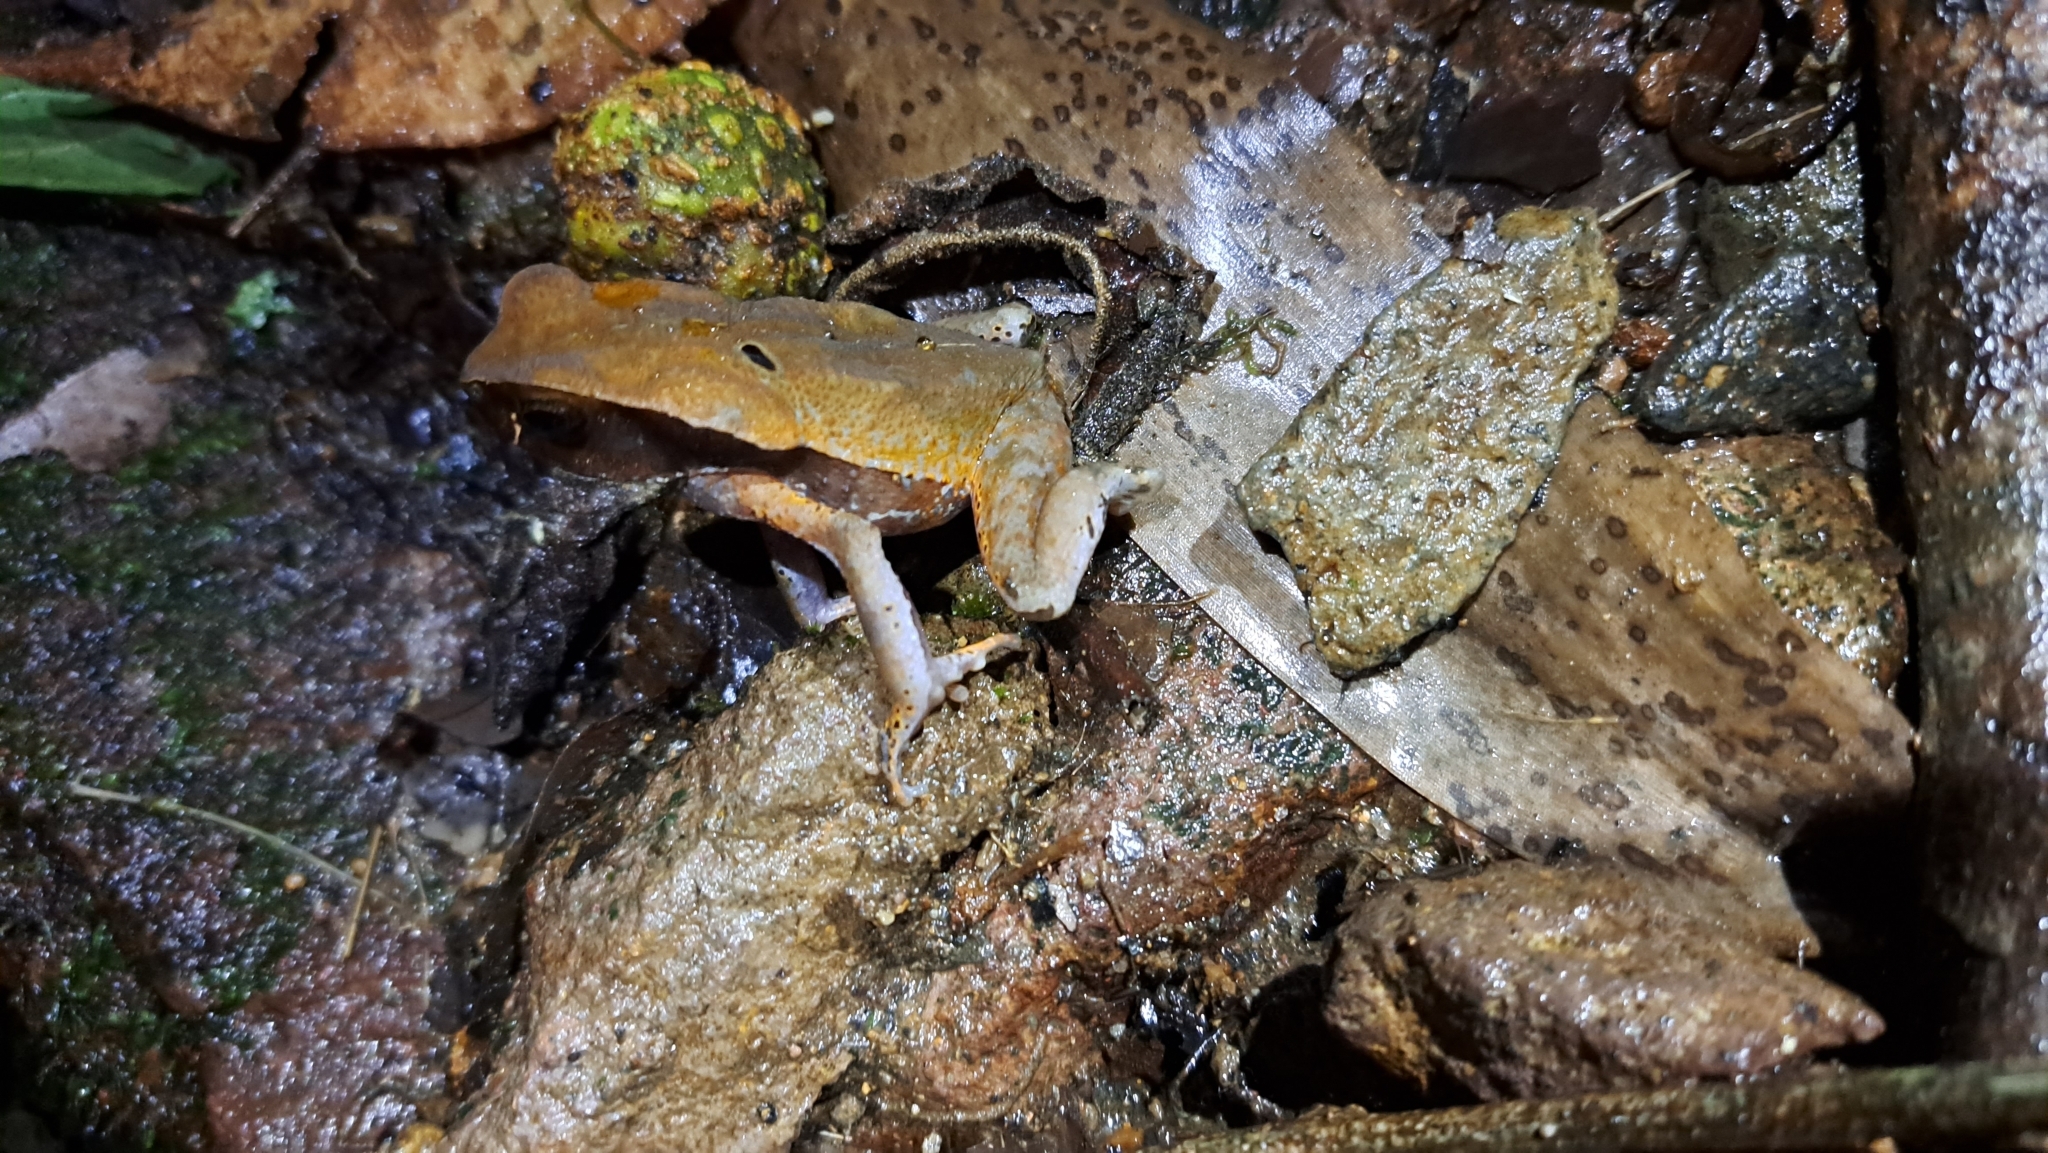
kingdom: Animalia
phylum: Chordata
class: Amphibia
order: Anura
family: Bufonidae
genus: Rhaebo
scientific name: Rhaebo haematiticus
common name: Truando toad
